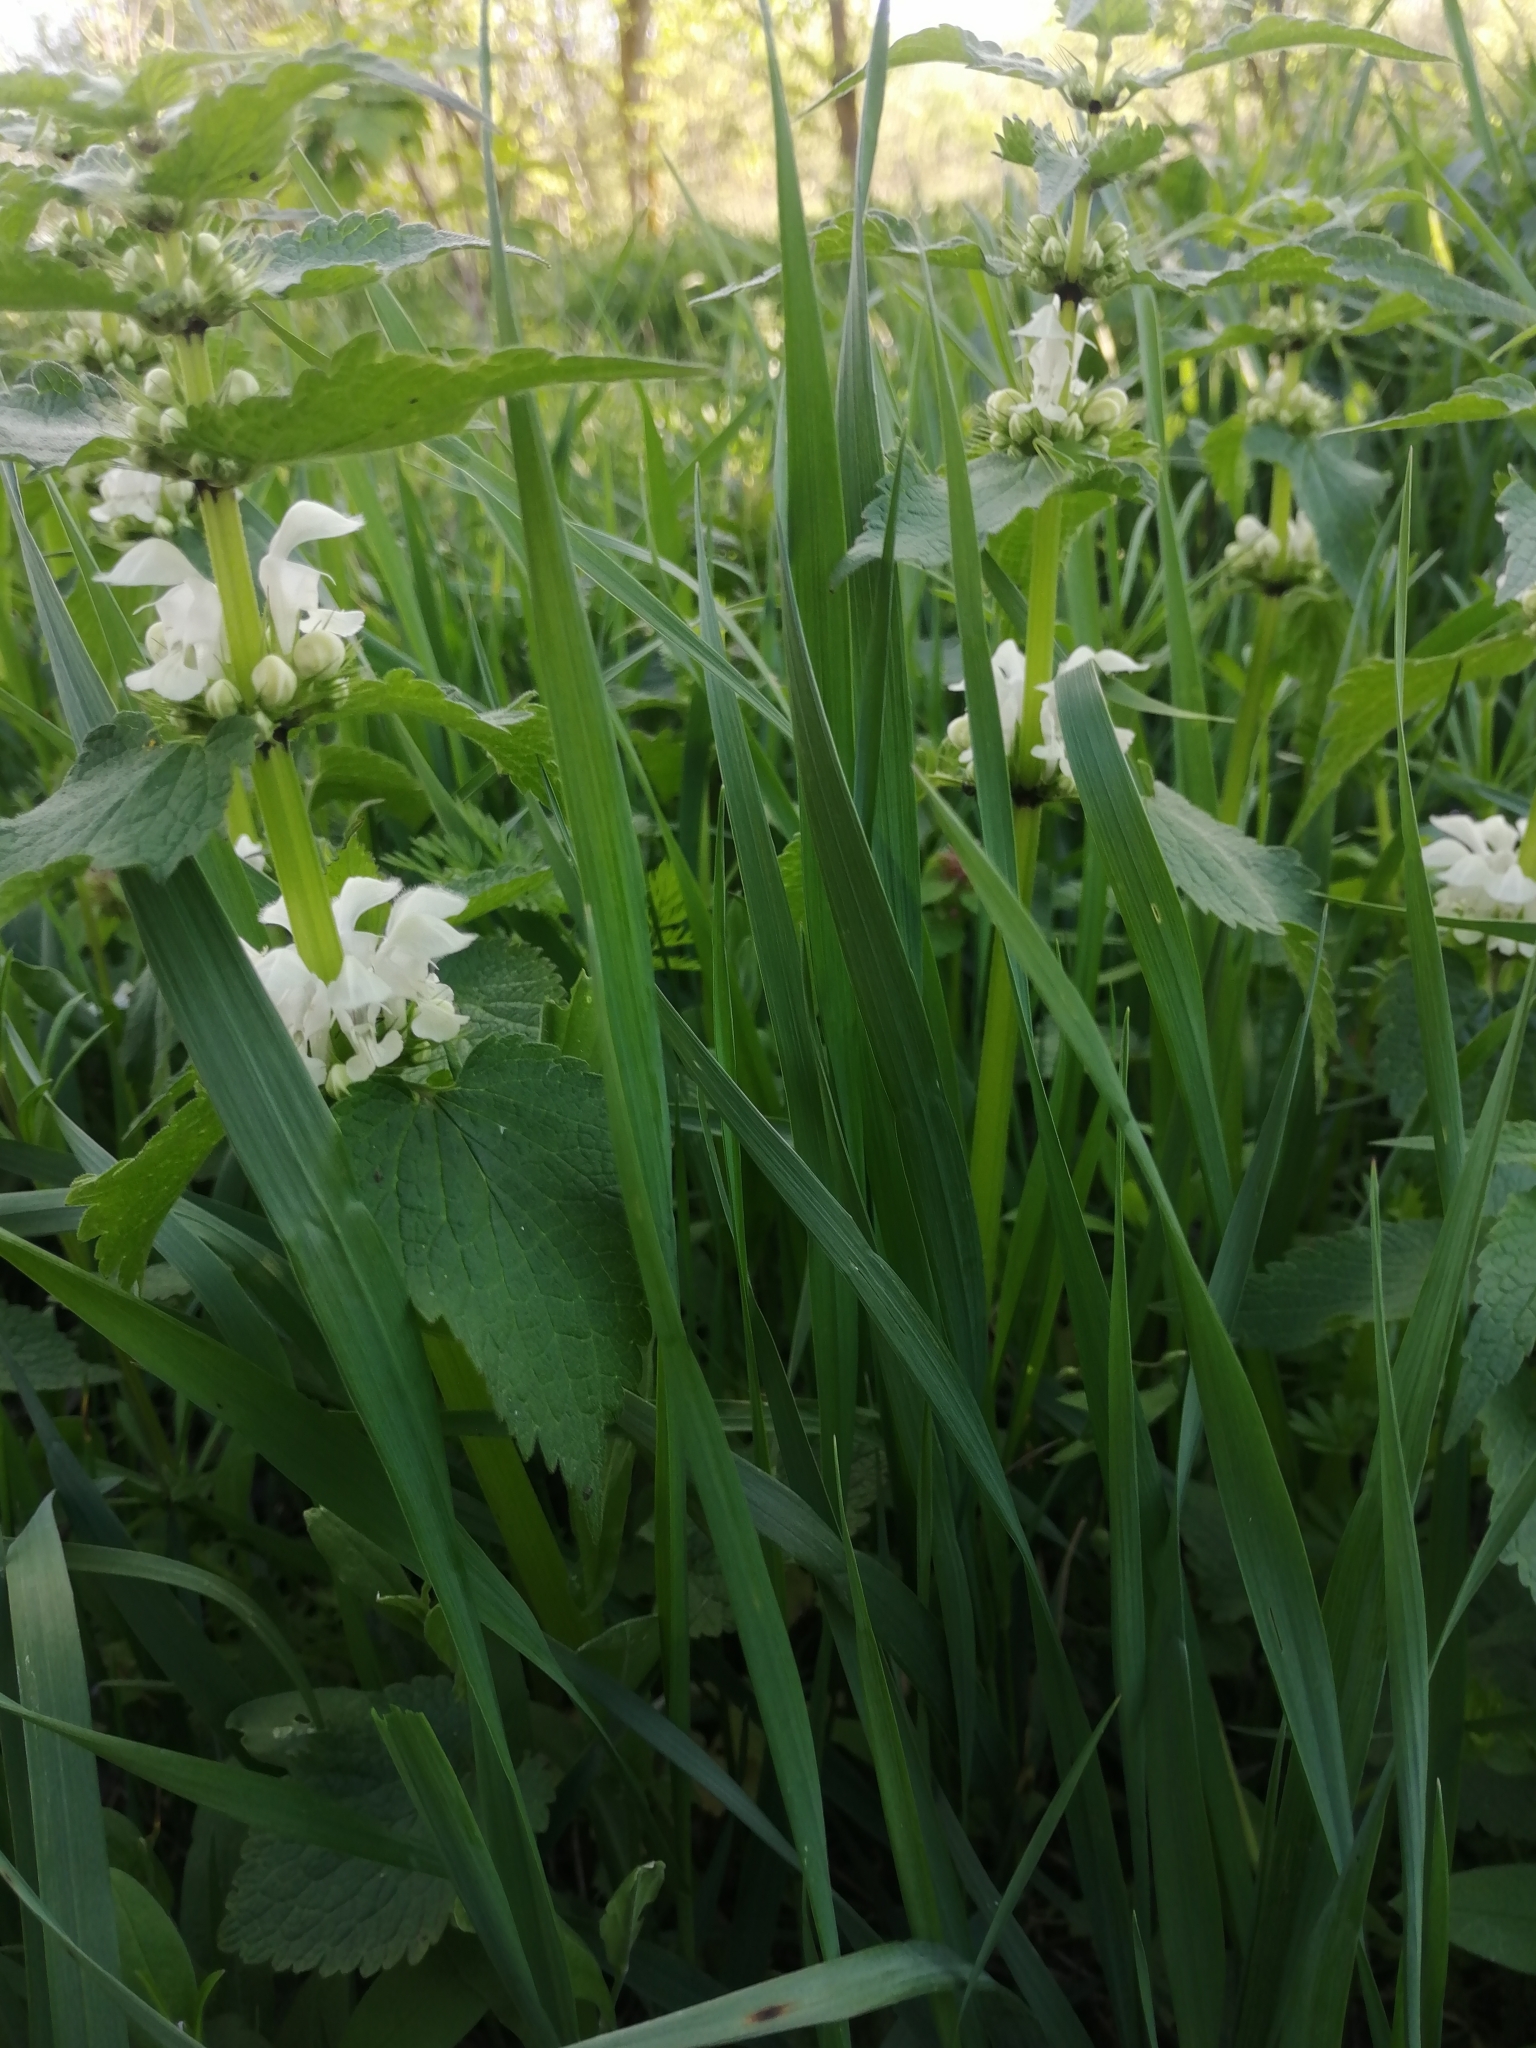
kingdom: Plantae
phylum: Tracheophyta
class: Magnoliopsida
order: Lamiales
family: Lamiaceae
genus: Lamium
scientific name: Lamium album
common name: White dead-nettle
